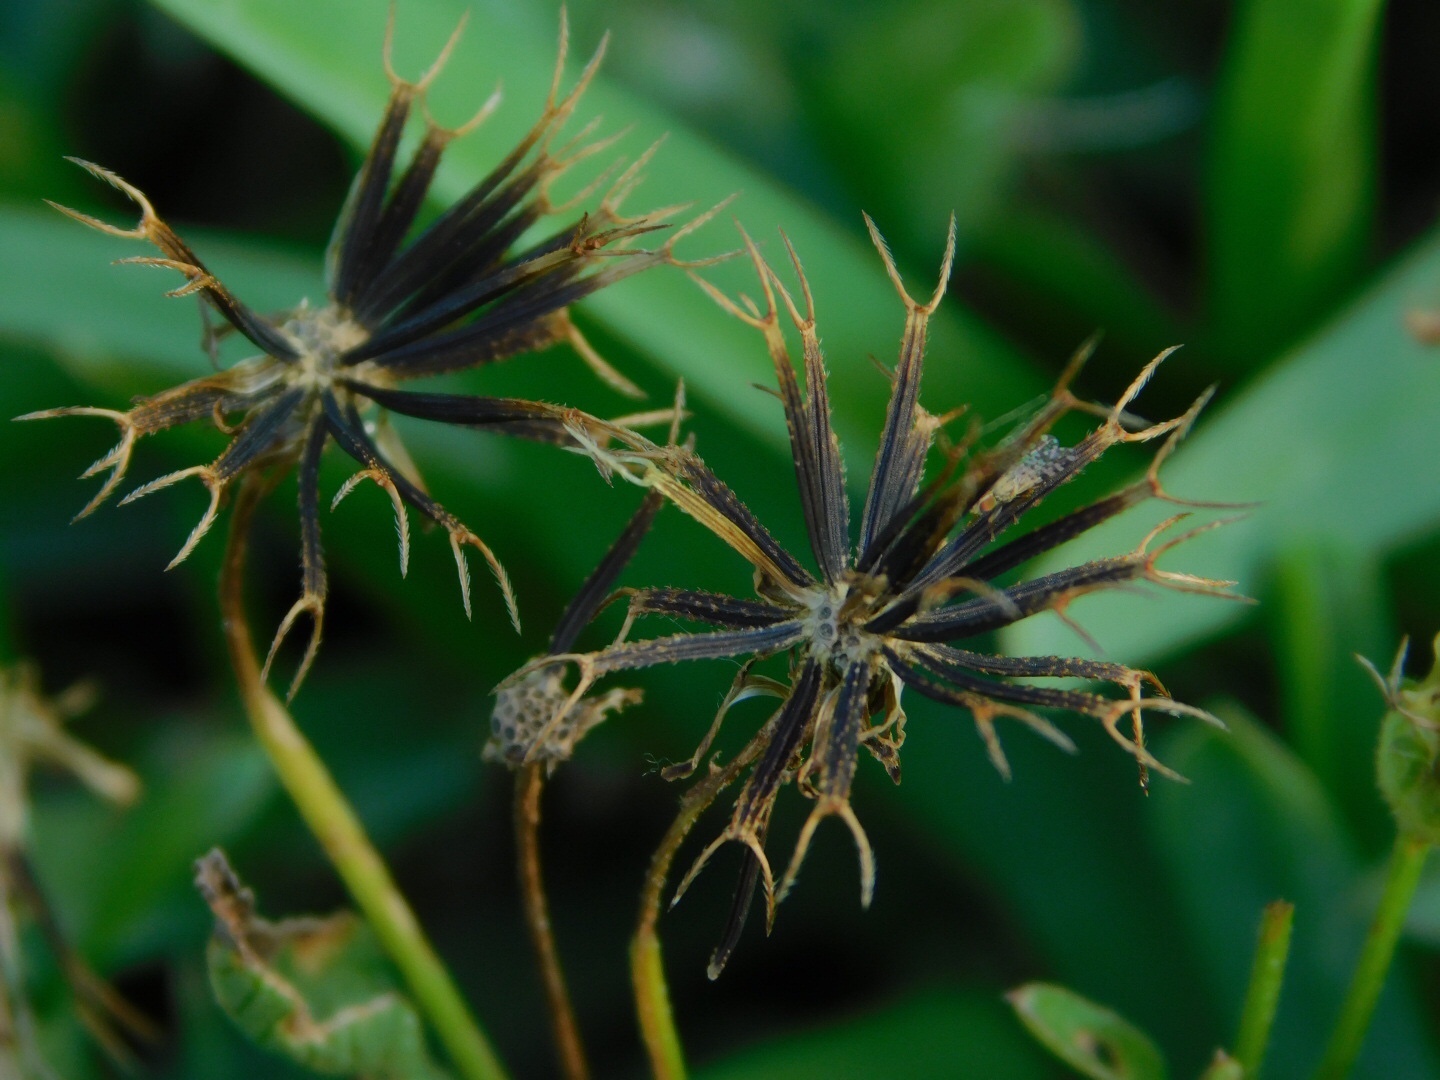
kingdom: Plantae
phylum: Tracheophyta
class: Magnoliopsida
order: Asterales
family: Asteraceae
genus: Bidens
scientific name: Bidens alba
